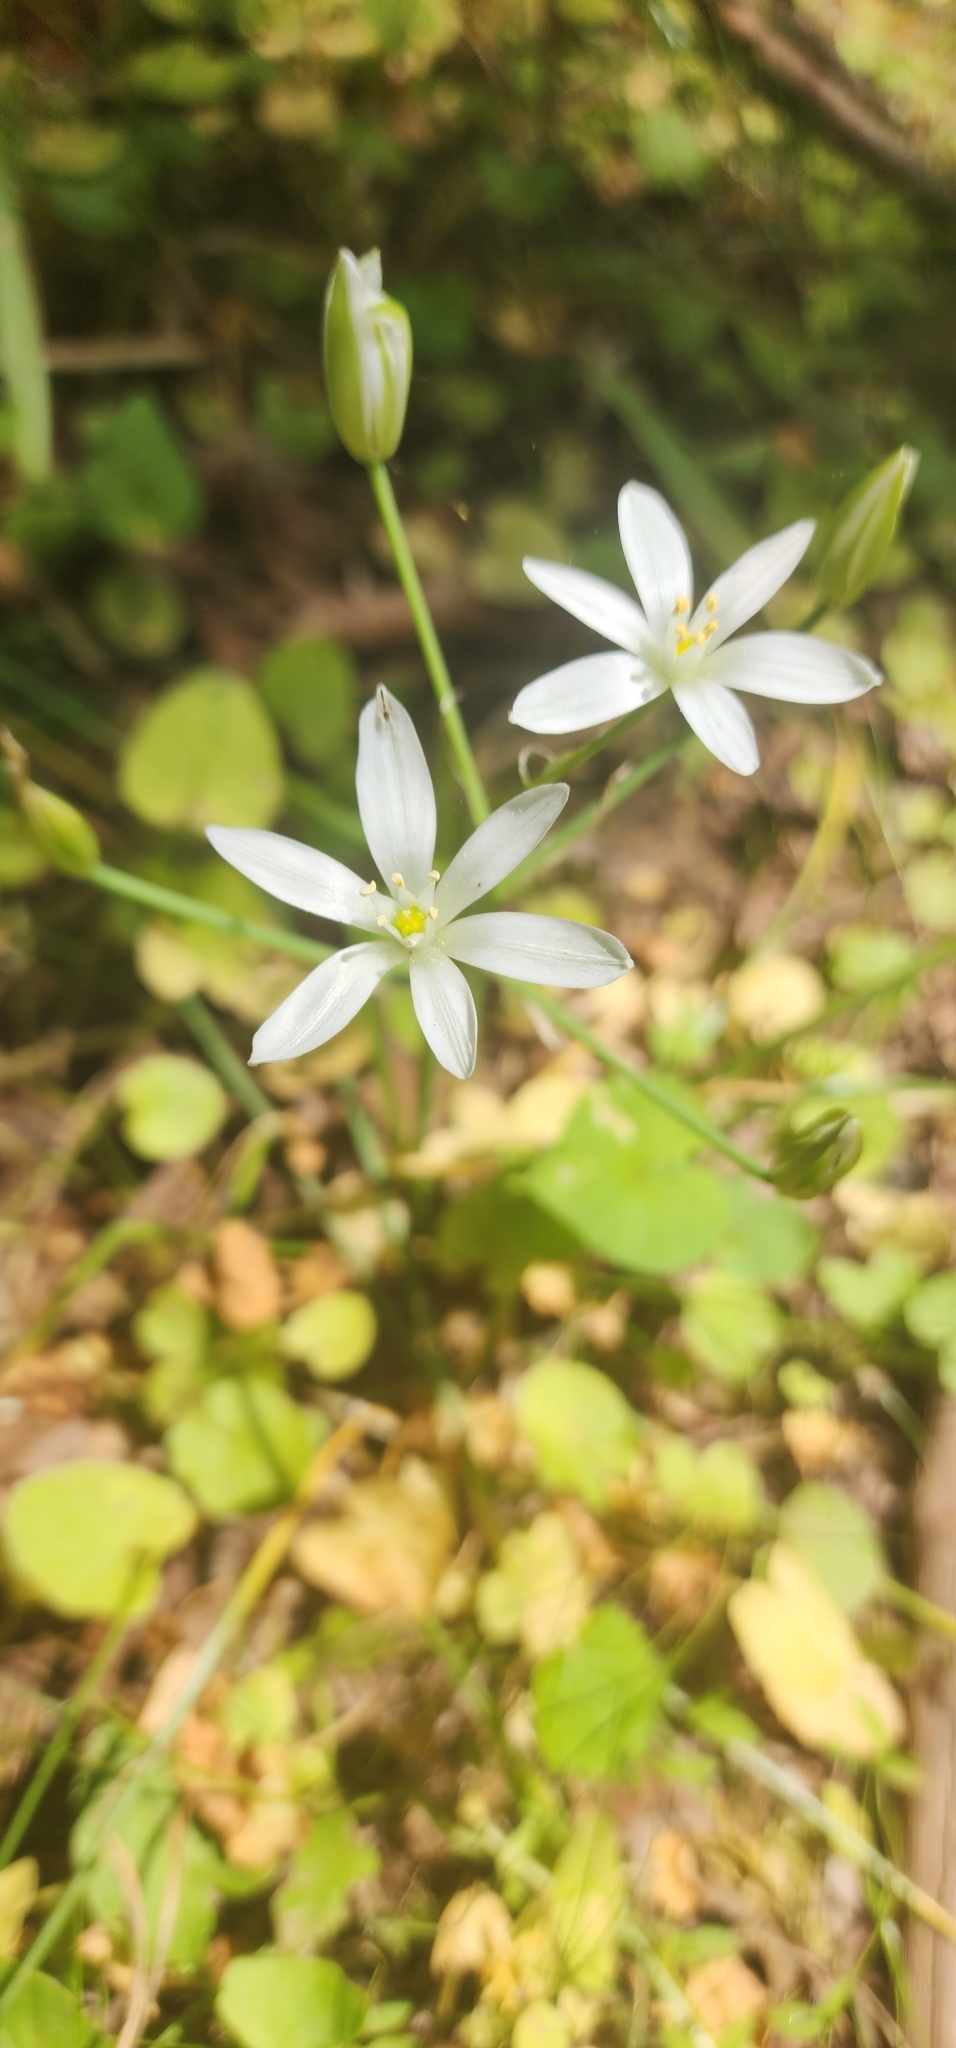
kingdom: Plantae
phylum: Tracheophyta
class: Liliopsida
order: Asparagales
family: Asparagaceae
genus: Ornithogalum
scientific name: Ornithogalum umbellatum
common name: Garden star-of-bethlehem
